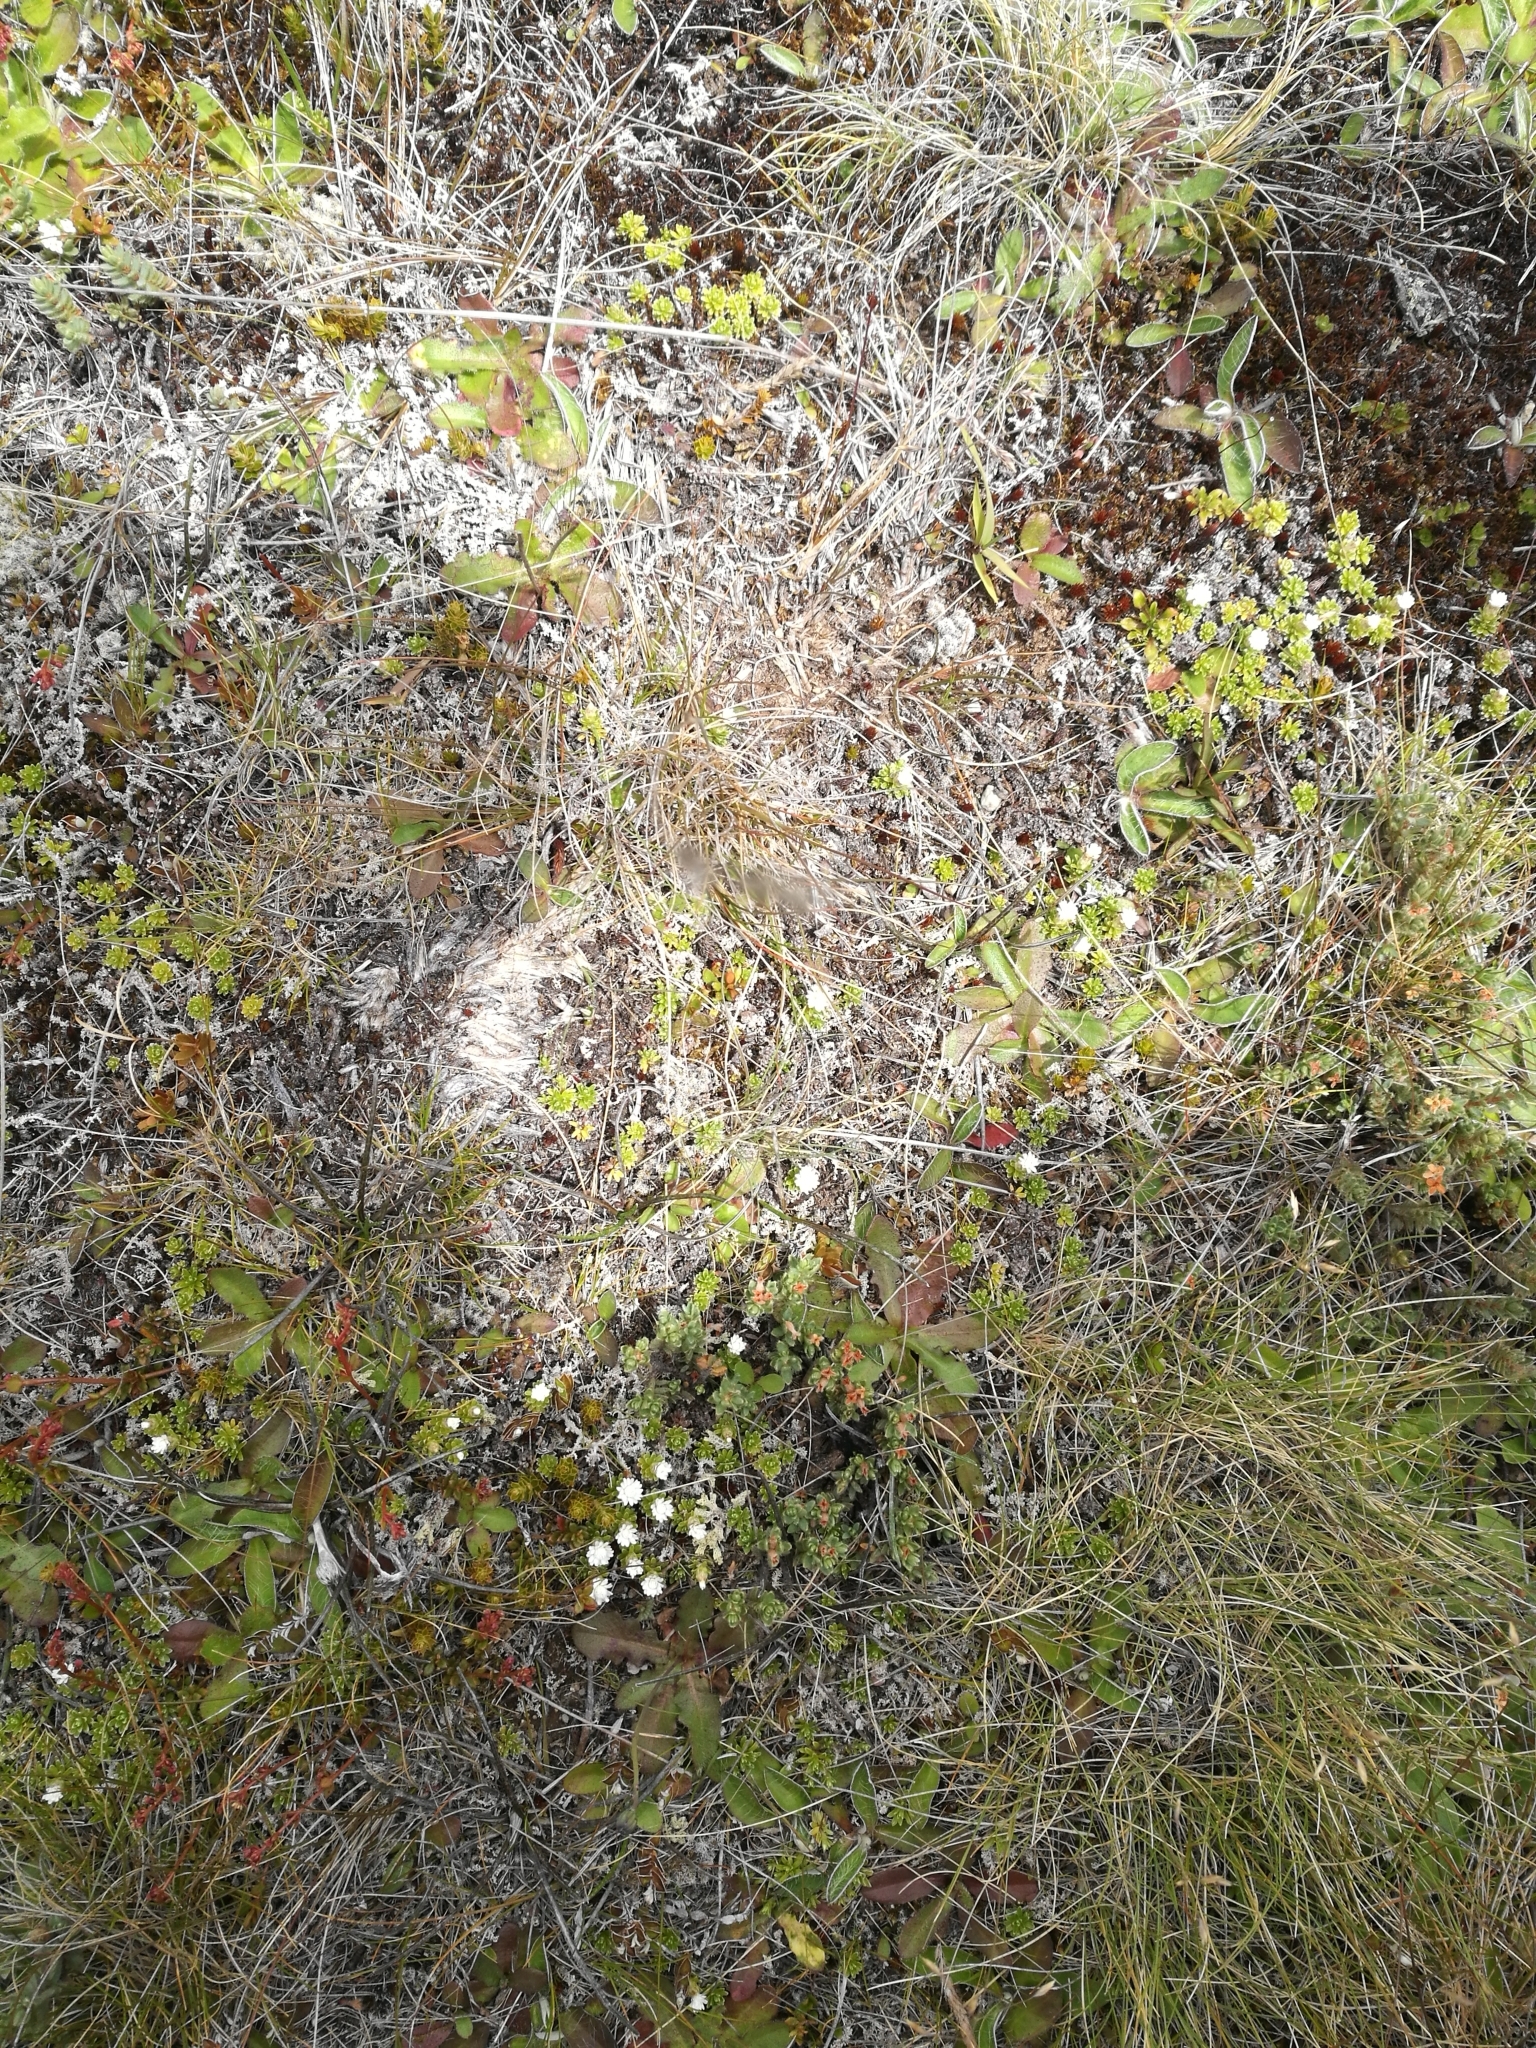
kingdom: Plantae
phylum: Tracheophyta
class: Magnoliopsida
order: Asterales
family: Asteraceae
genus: Raoulia
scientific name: Raoulia subsericea
